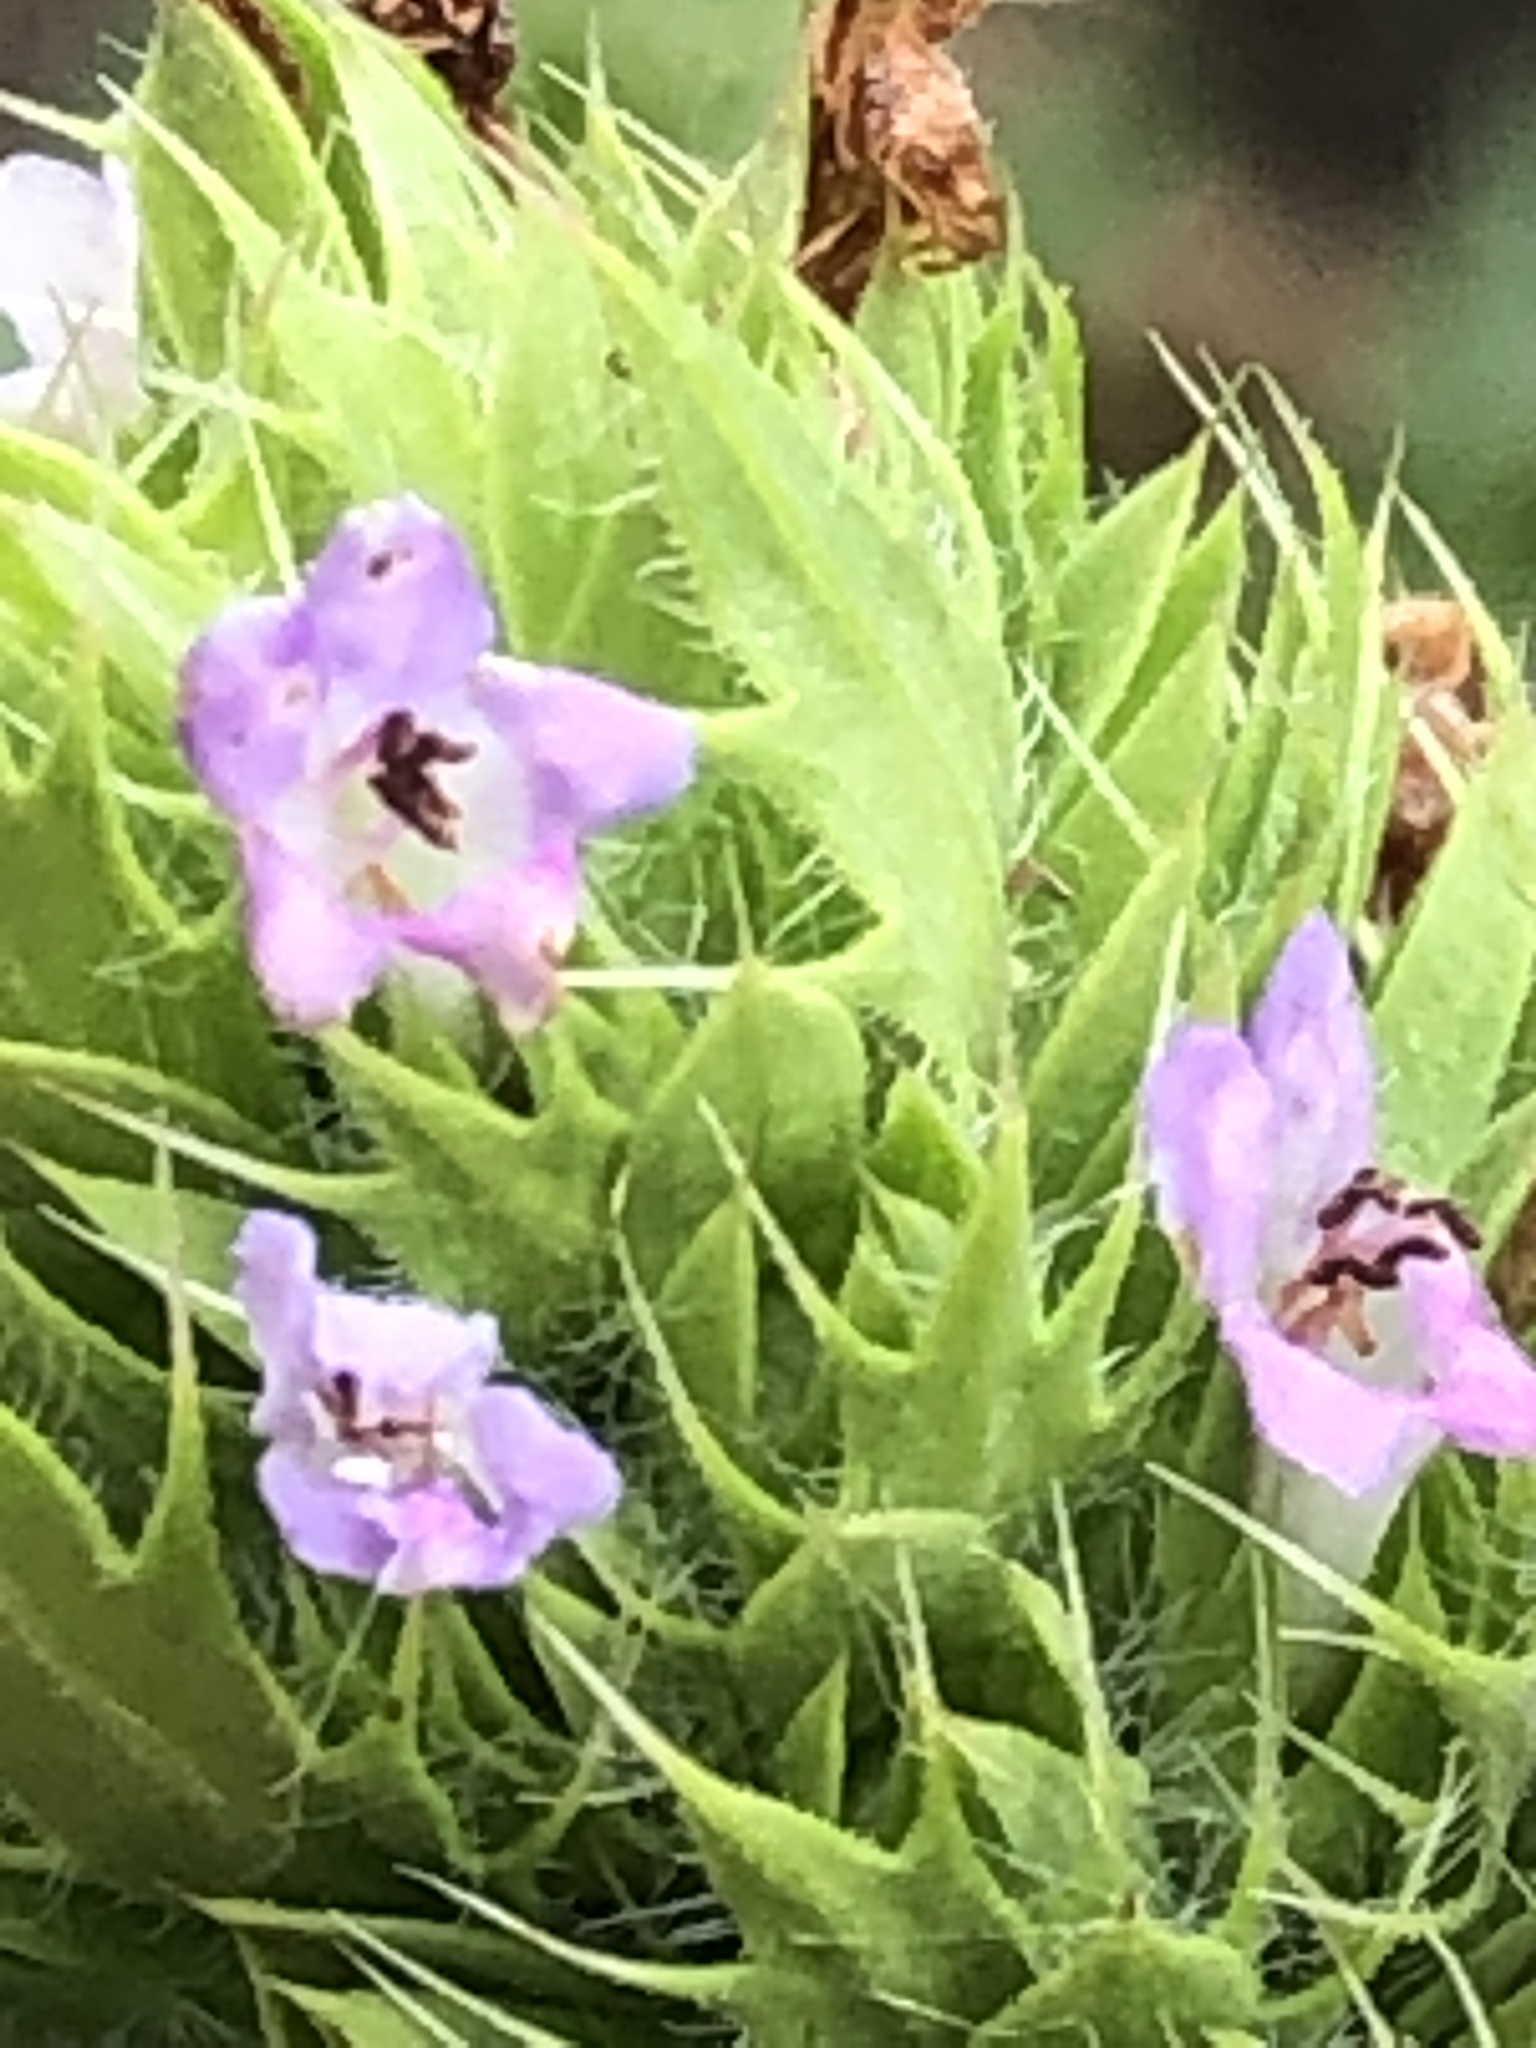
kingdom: Plantae
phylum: Tracheophyta
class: Magnoliopsida
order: Lamiales
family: Lamiaceae
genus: Dracocephalum
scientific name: Dracocephalum parviflorum
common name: American dragonhead
